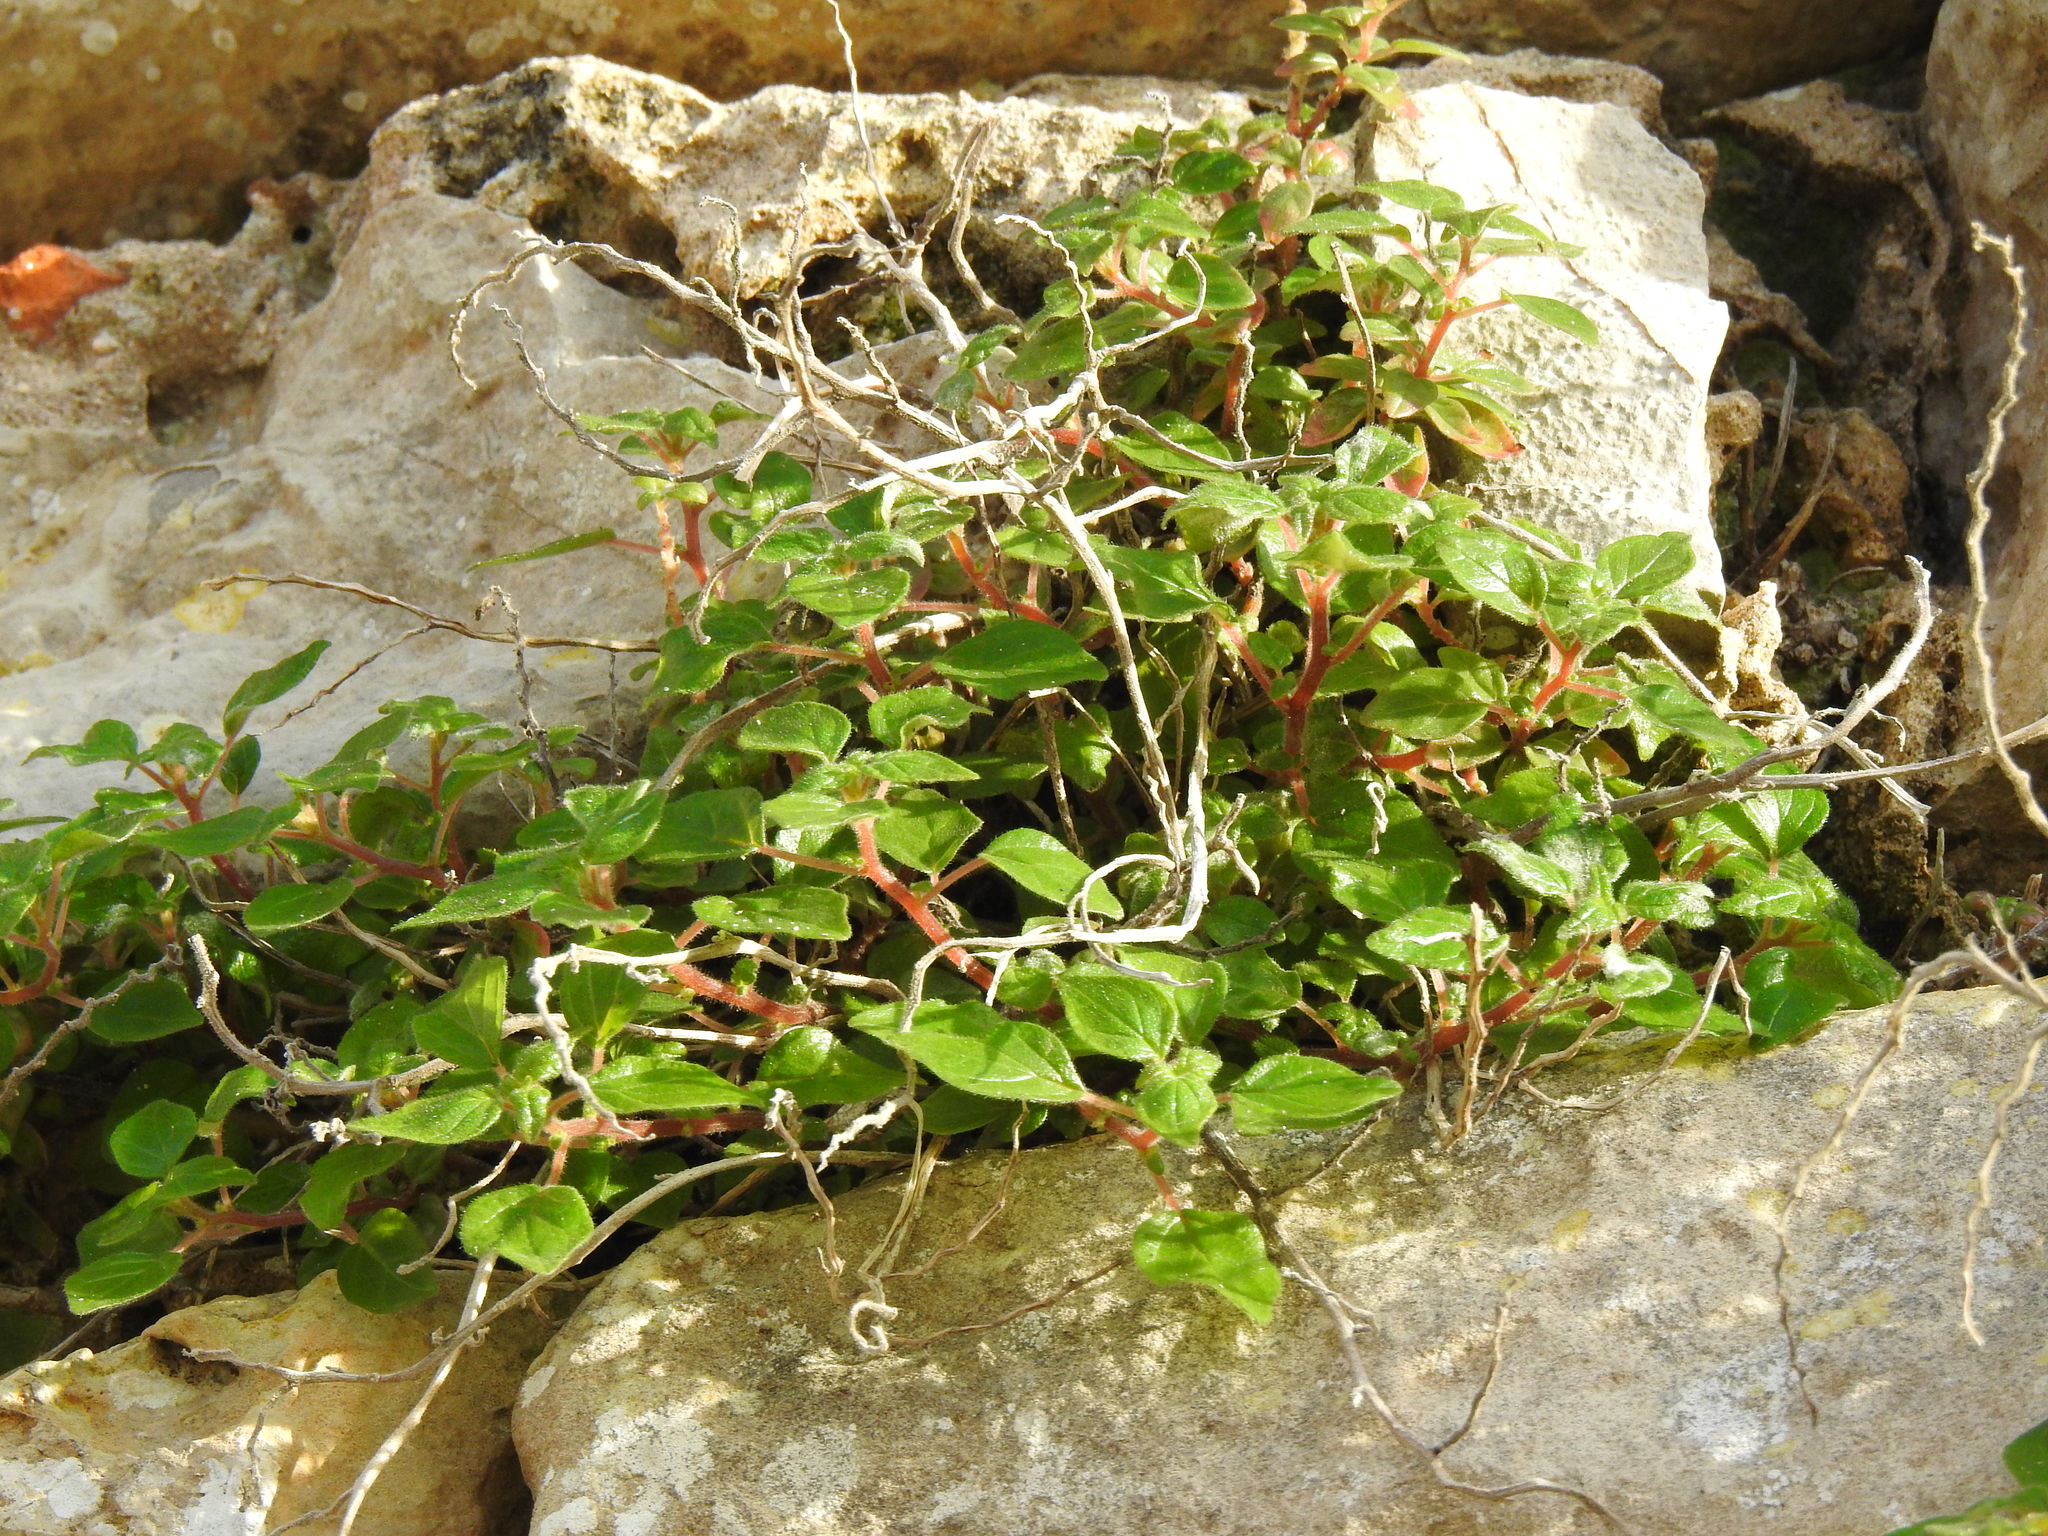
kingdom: Plantae
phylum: Tracheophyta
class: Magnoliopsida
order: Rosales
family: Urticaceae
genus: Parietaria
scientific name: Parietaria judaica
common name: Pellitory-of-the-wall
